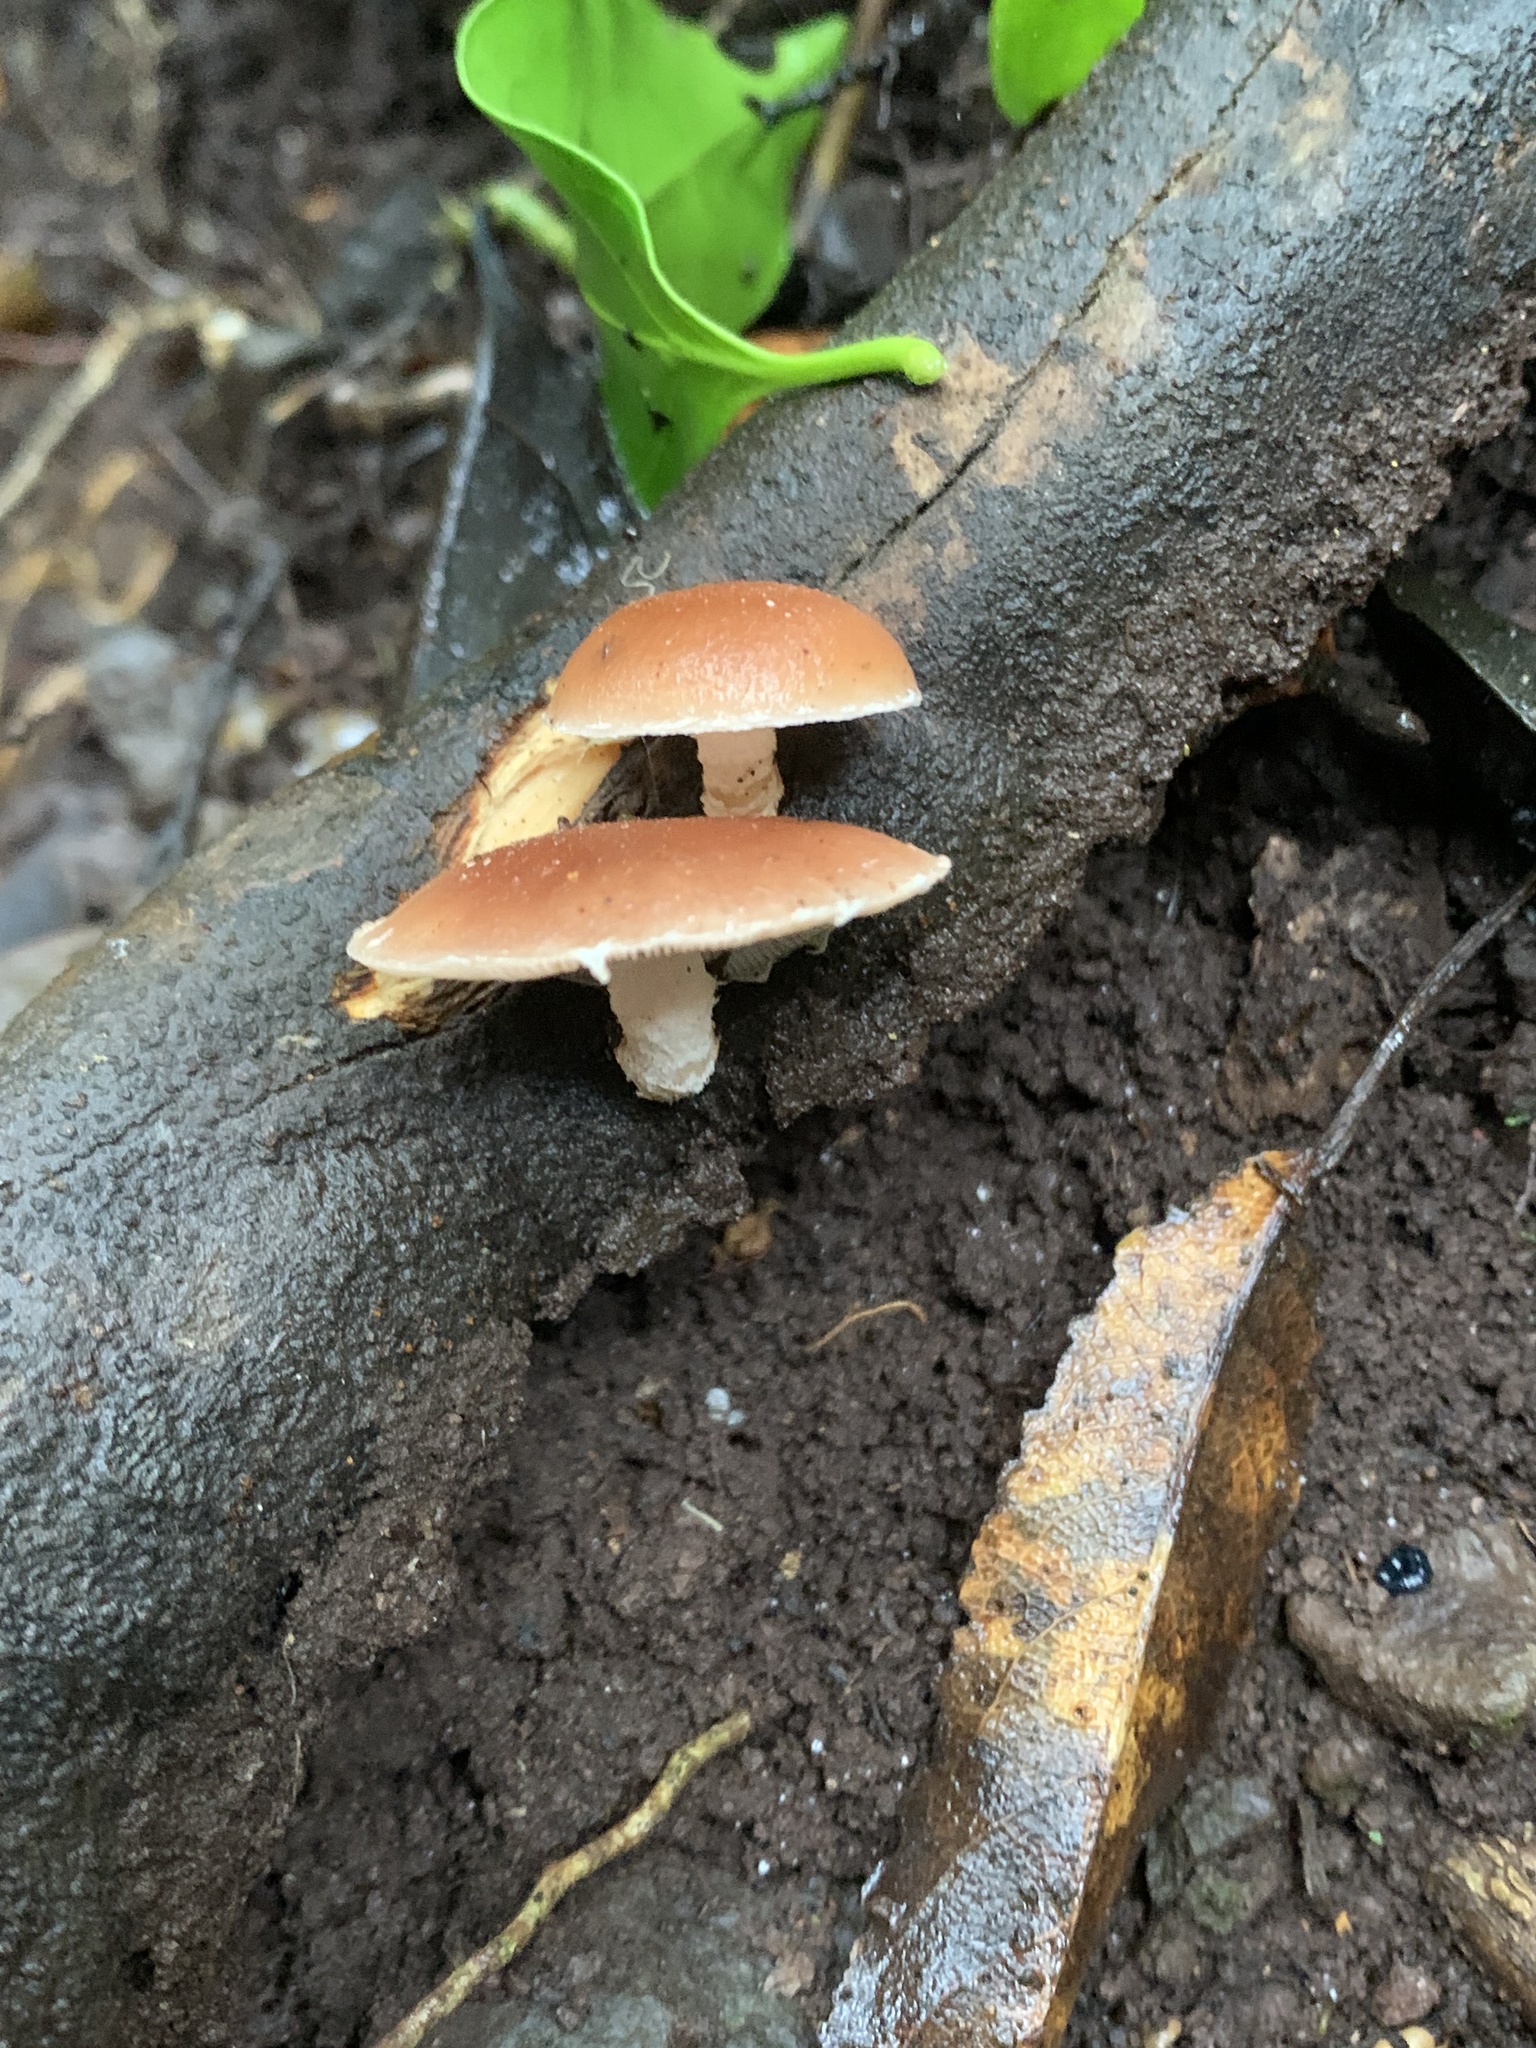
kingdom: Fungi
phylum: Basidiomycota
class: Agaricomycetes
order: Agaricales
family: Omphalotaceae
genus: Lentinula
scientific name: Lentinula lateritia
